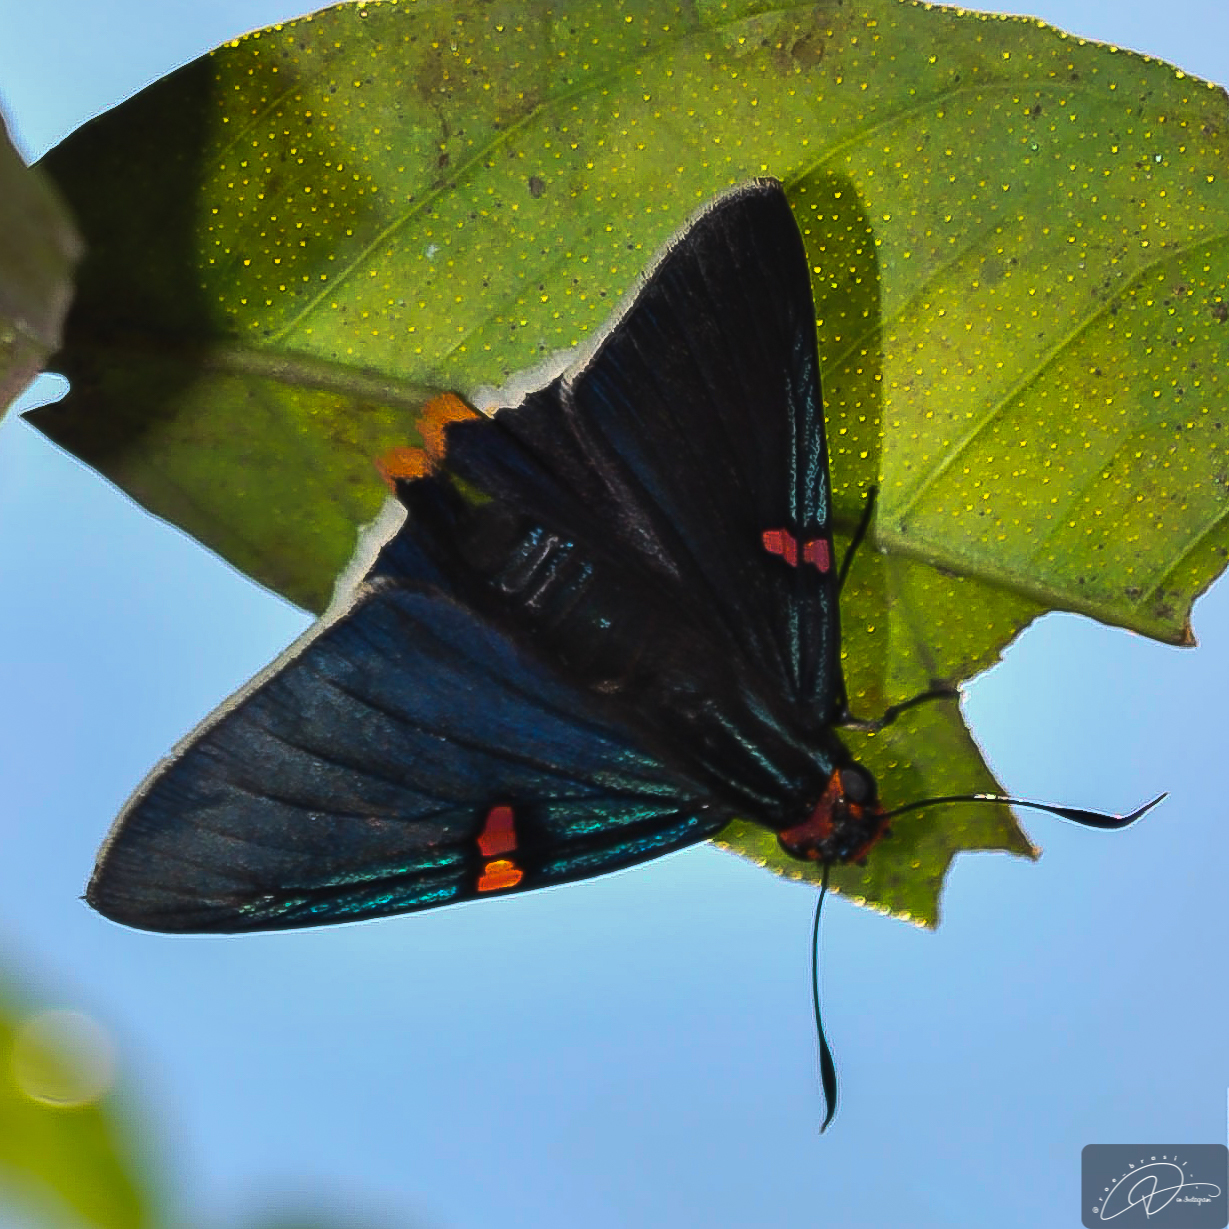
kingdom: Animalia
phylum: Arthropoda
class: Insecta
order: Lepidoptera
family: Hesperiidae
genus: Phocides
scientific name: Phocides polybius
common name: Guava skipper
